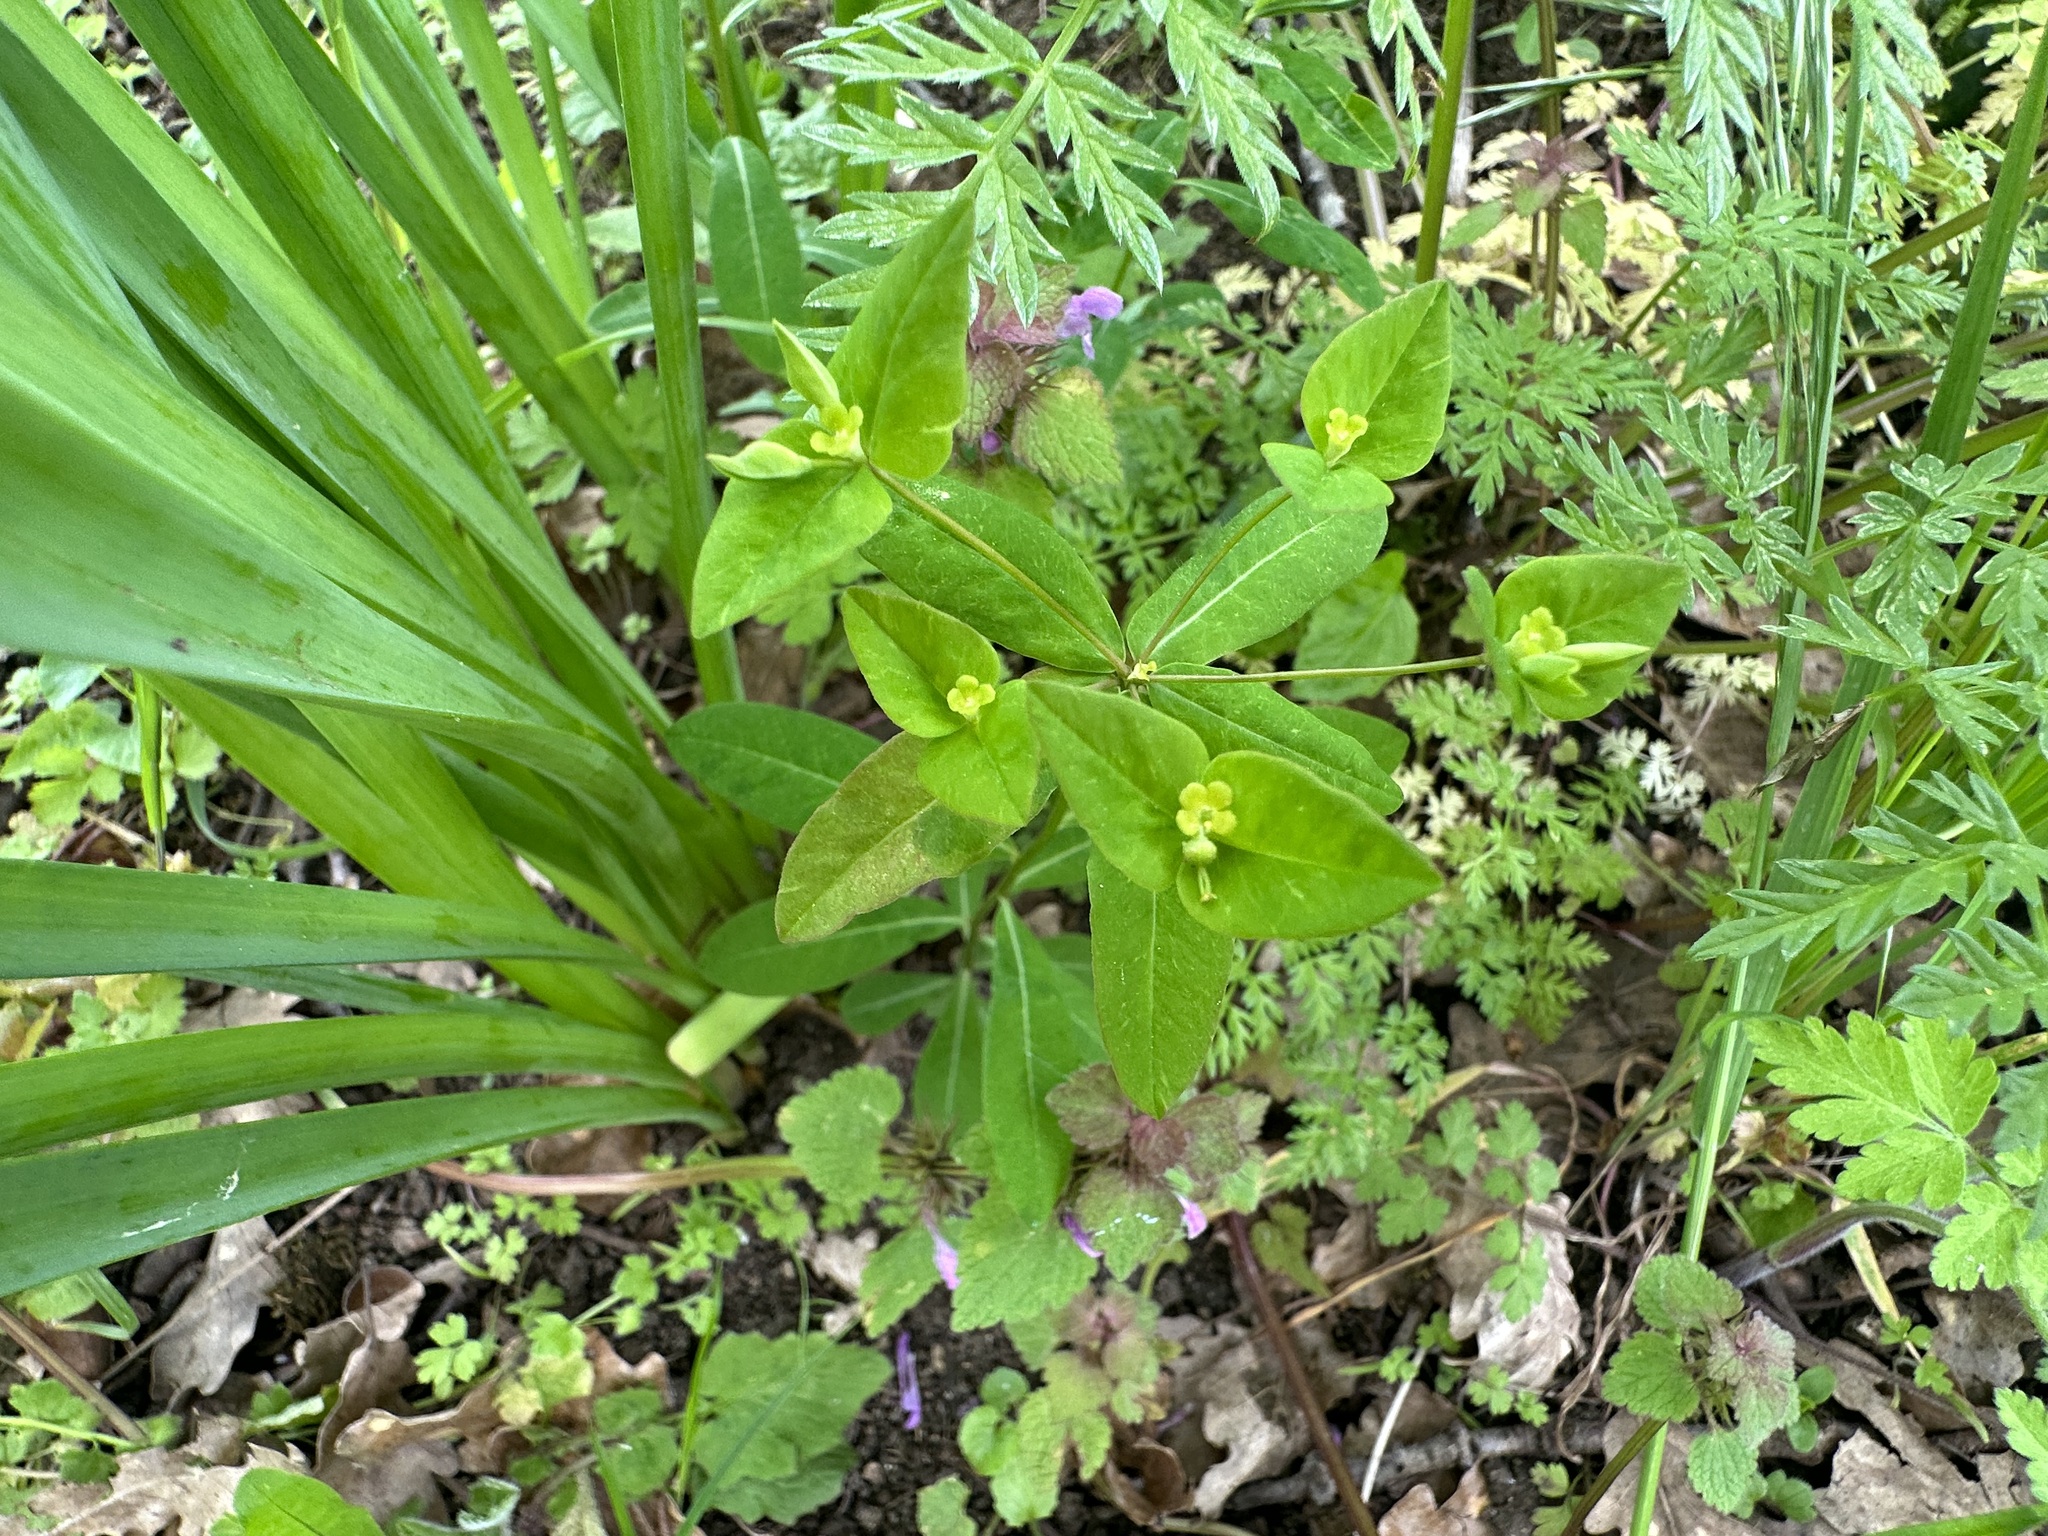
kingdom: Plantae
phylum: Tracheophyta
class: Magnoliopsida
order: Malpighiales
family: Euphorbiaceae
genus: Euphorbia
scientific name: Euphorbia dulcis
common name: Sweet spurge
